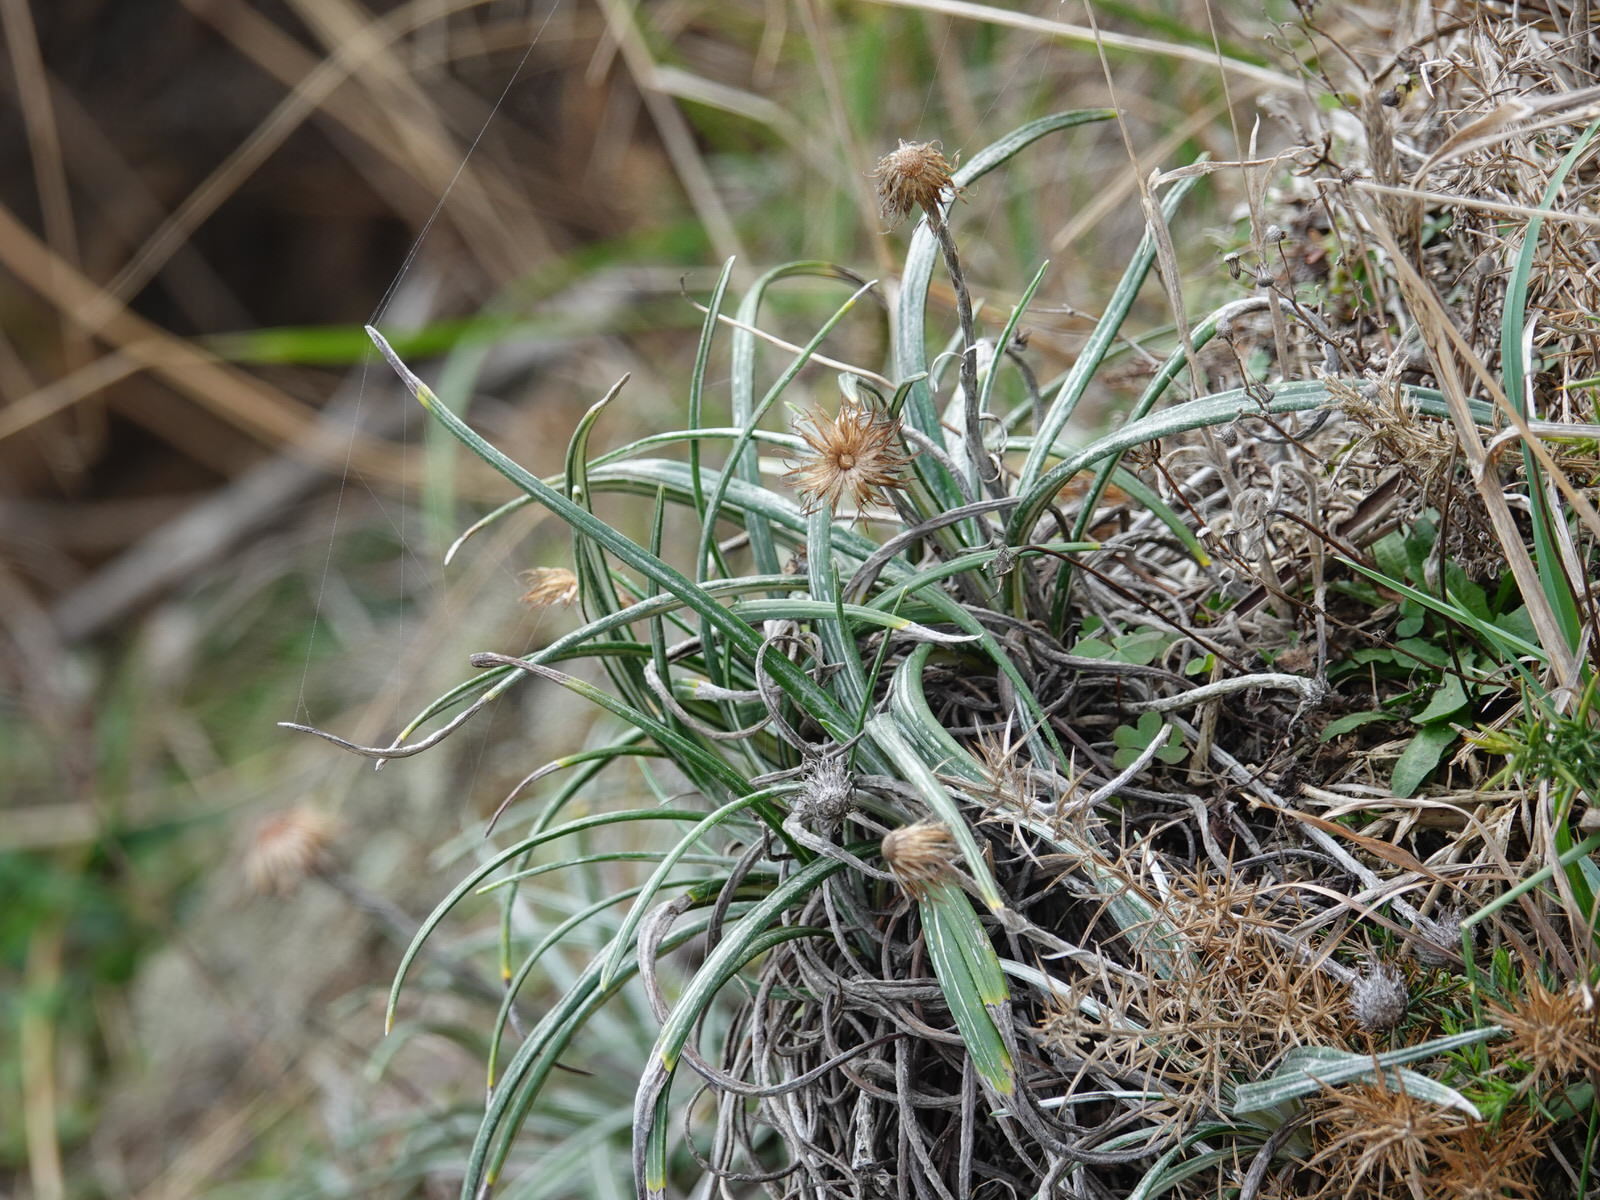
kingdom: Plantae
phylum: Tracheophyta
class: Magnoliopsida
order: Asterales
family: Asteraceae
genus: Celmisia
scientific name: Celmisia major
